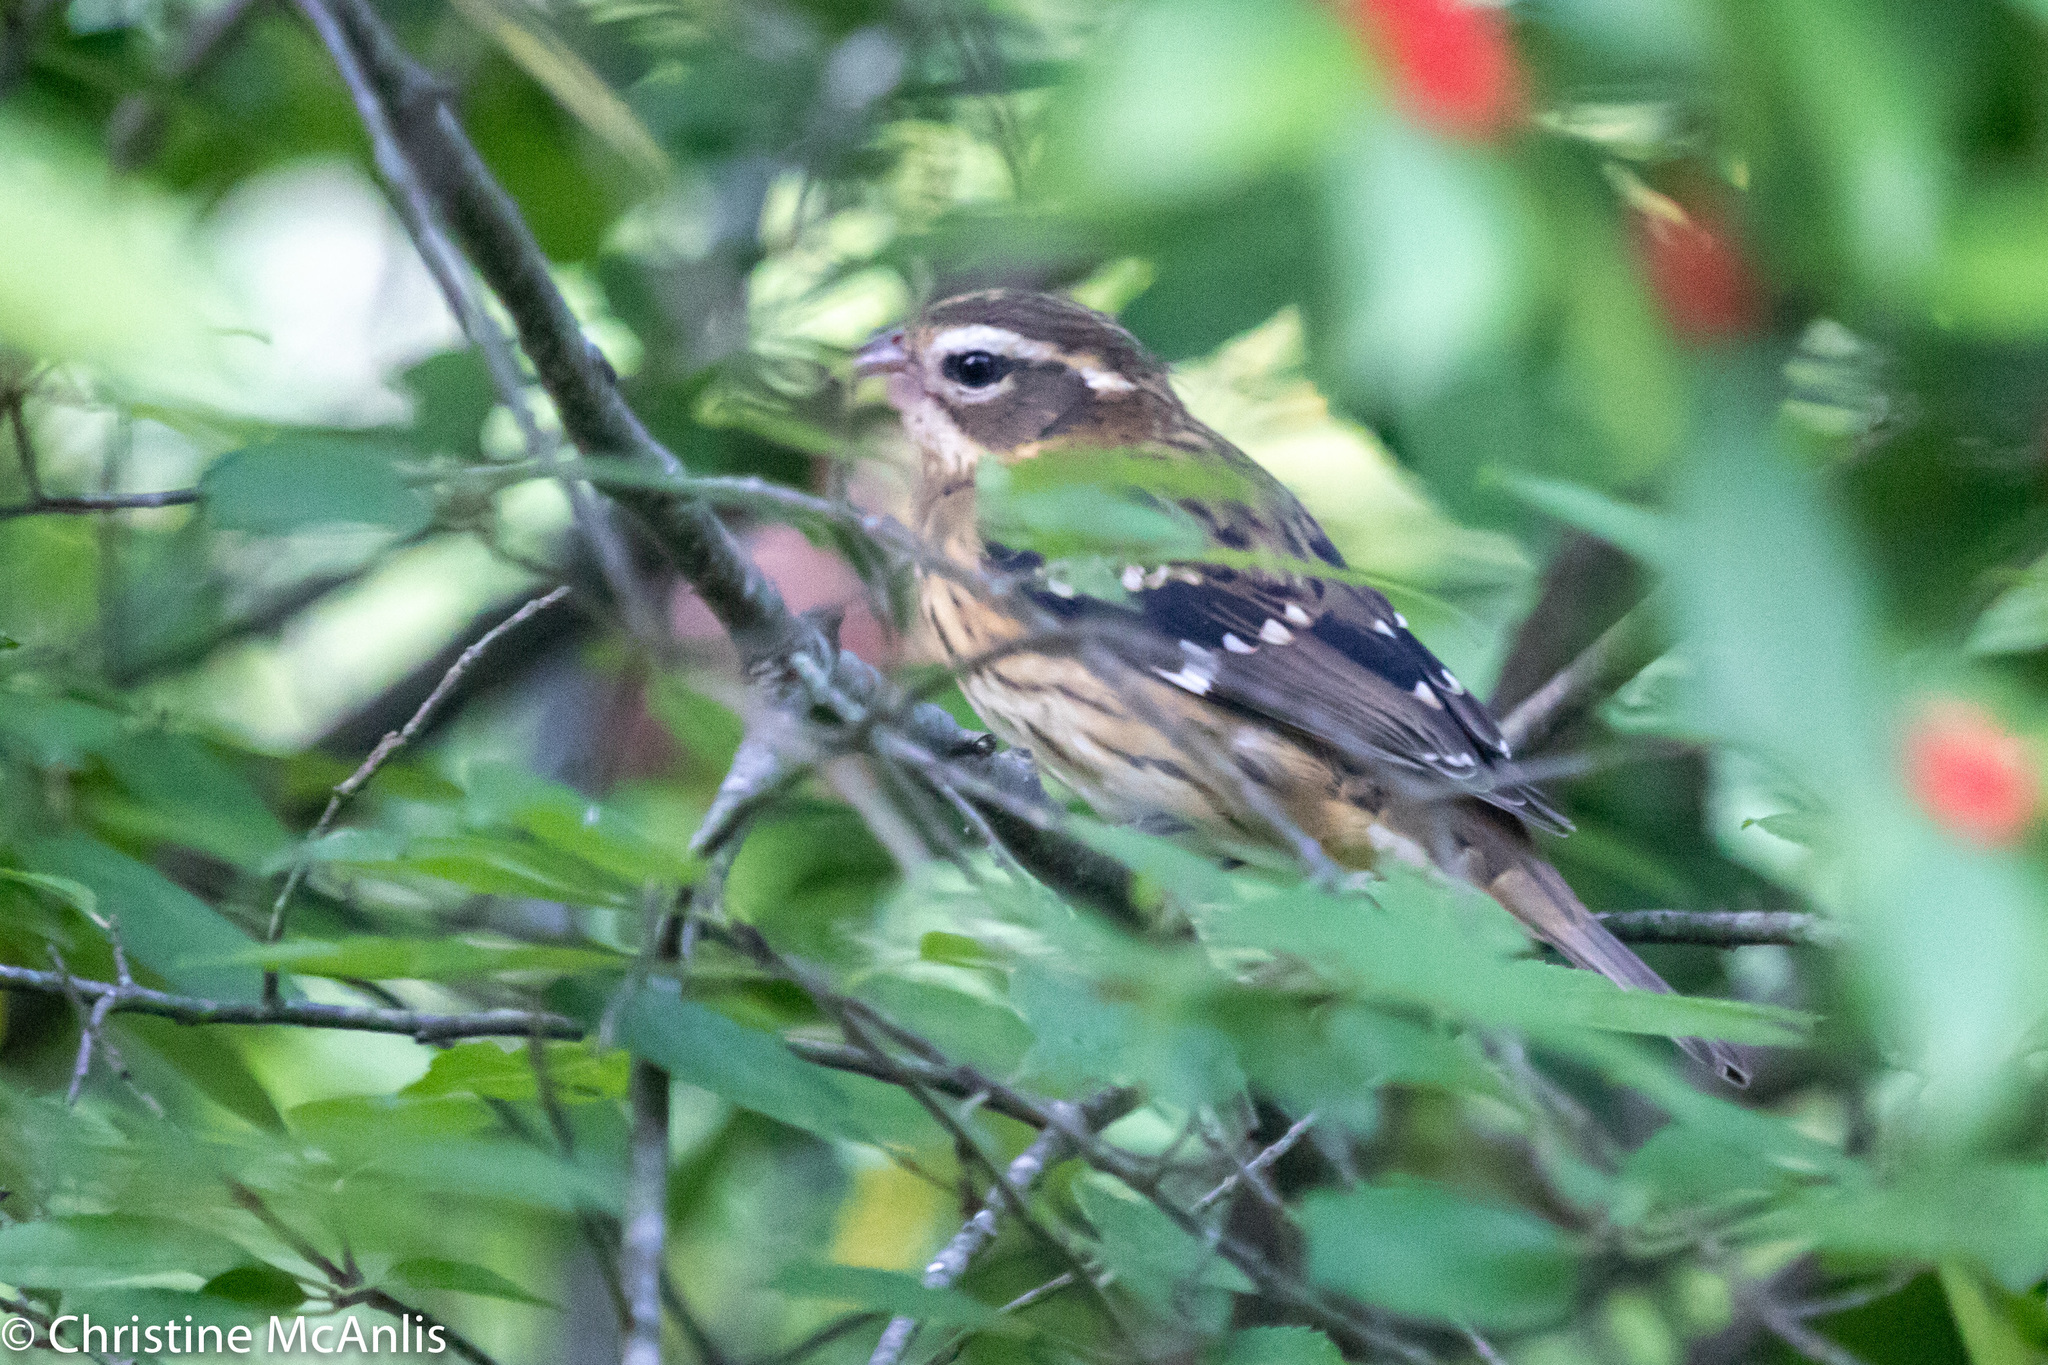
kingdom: Animalia
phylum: Chordata
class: Aves
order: Passeriformes
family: Cardinalidae
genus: Pheucticus
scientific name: Pheucticus ludovicianus
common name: Rose-breasted grosbeak
